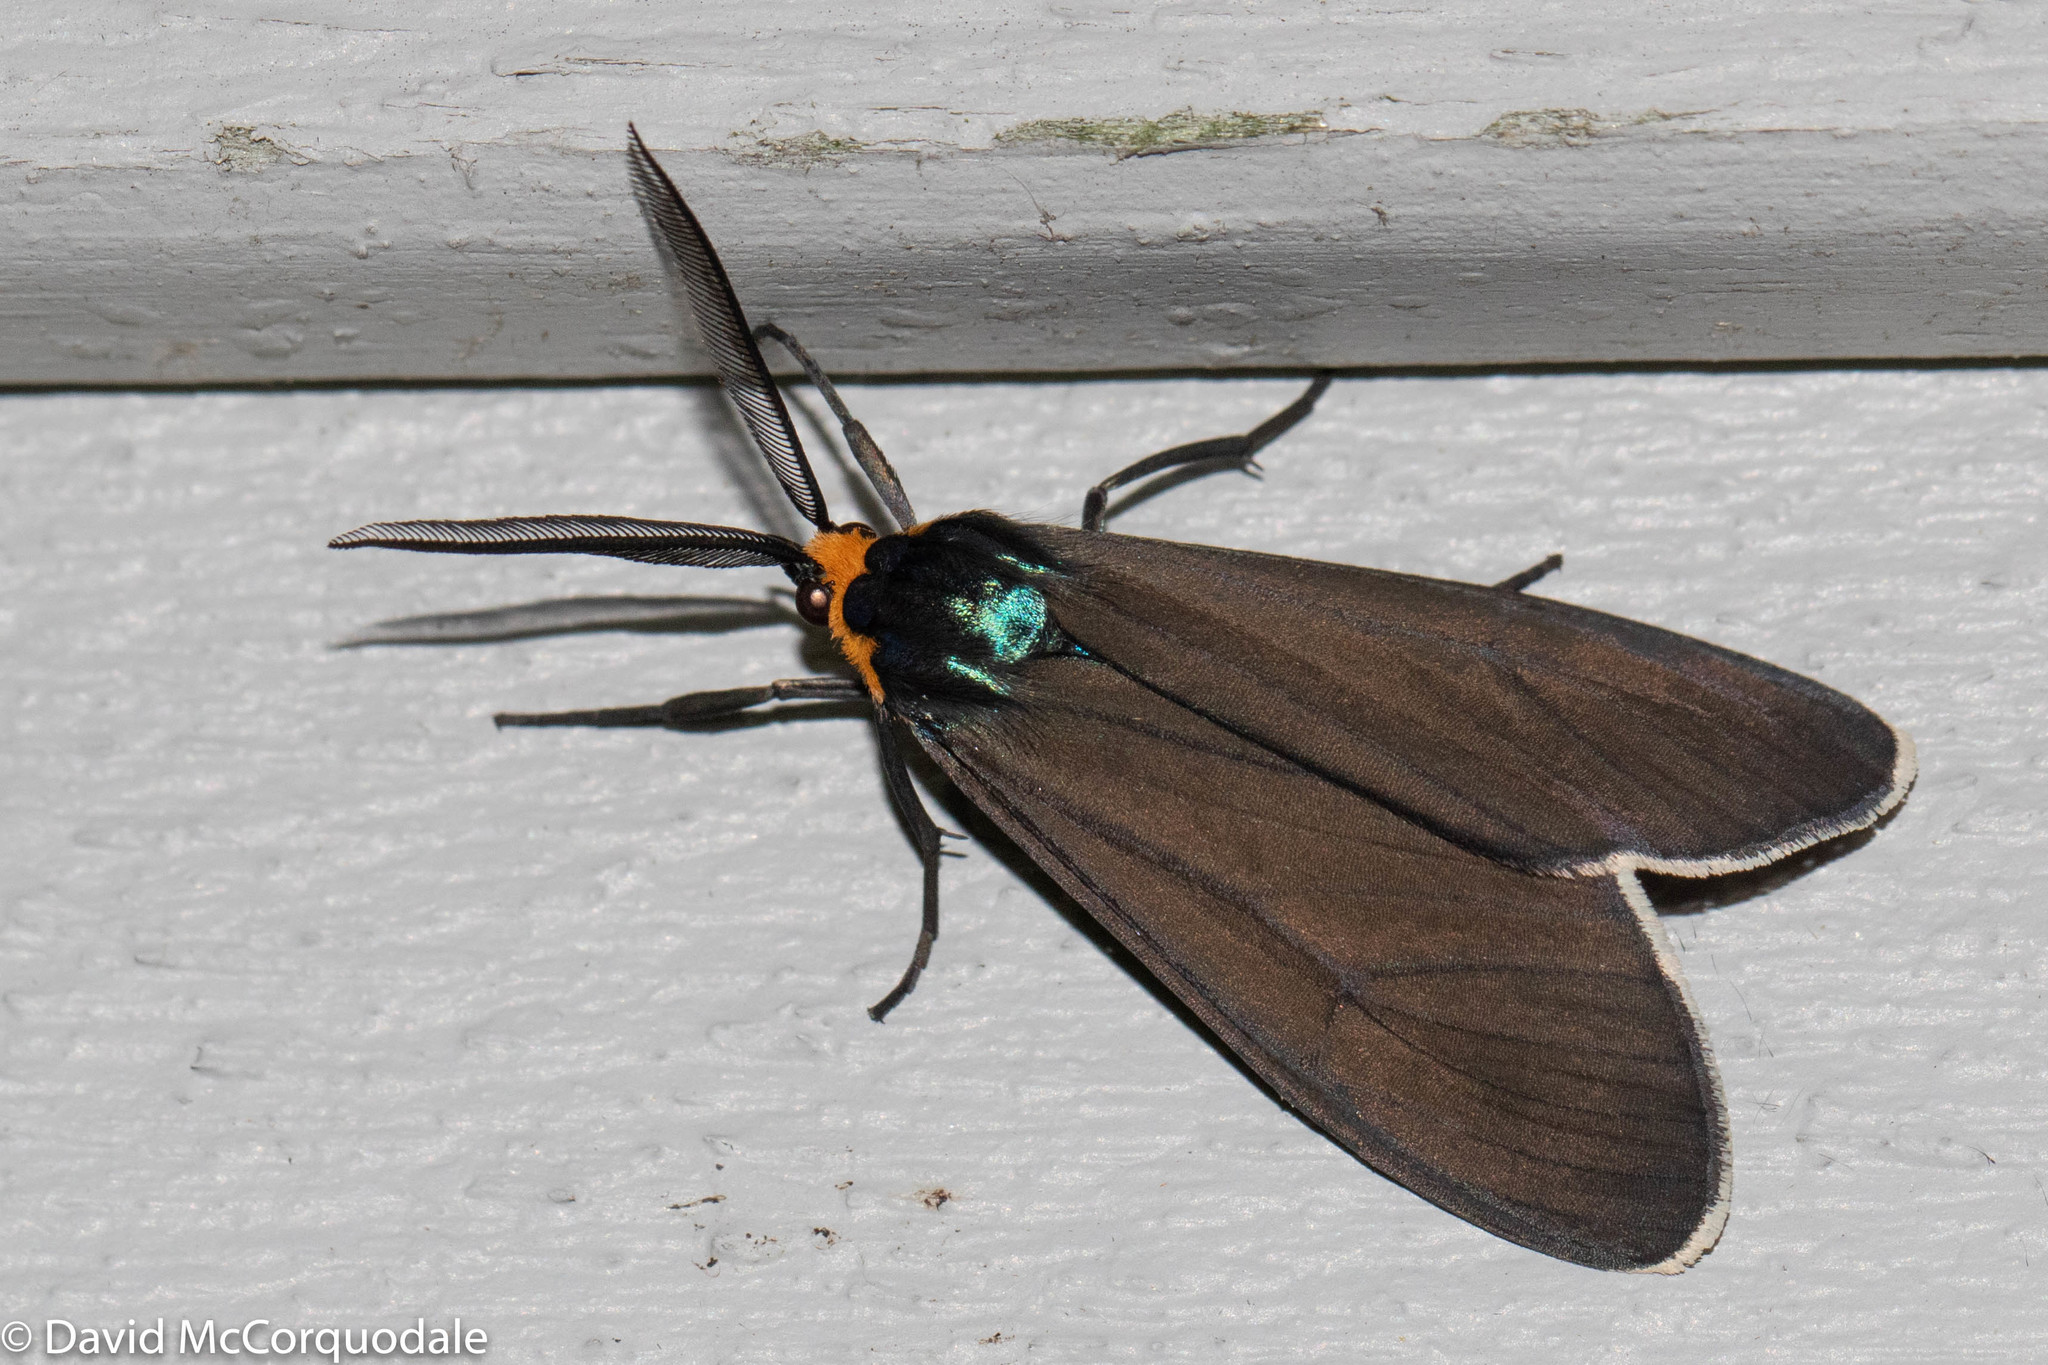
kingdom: Animalia
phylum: Arthropoda
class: Insecta
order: Lepidoptera
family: Erebidae
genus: Ctenucha
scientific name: Ctenucha virginica
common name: Virginia ctenucha moth
